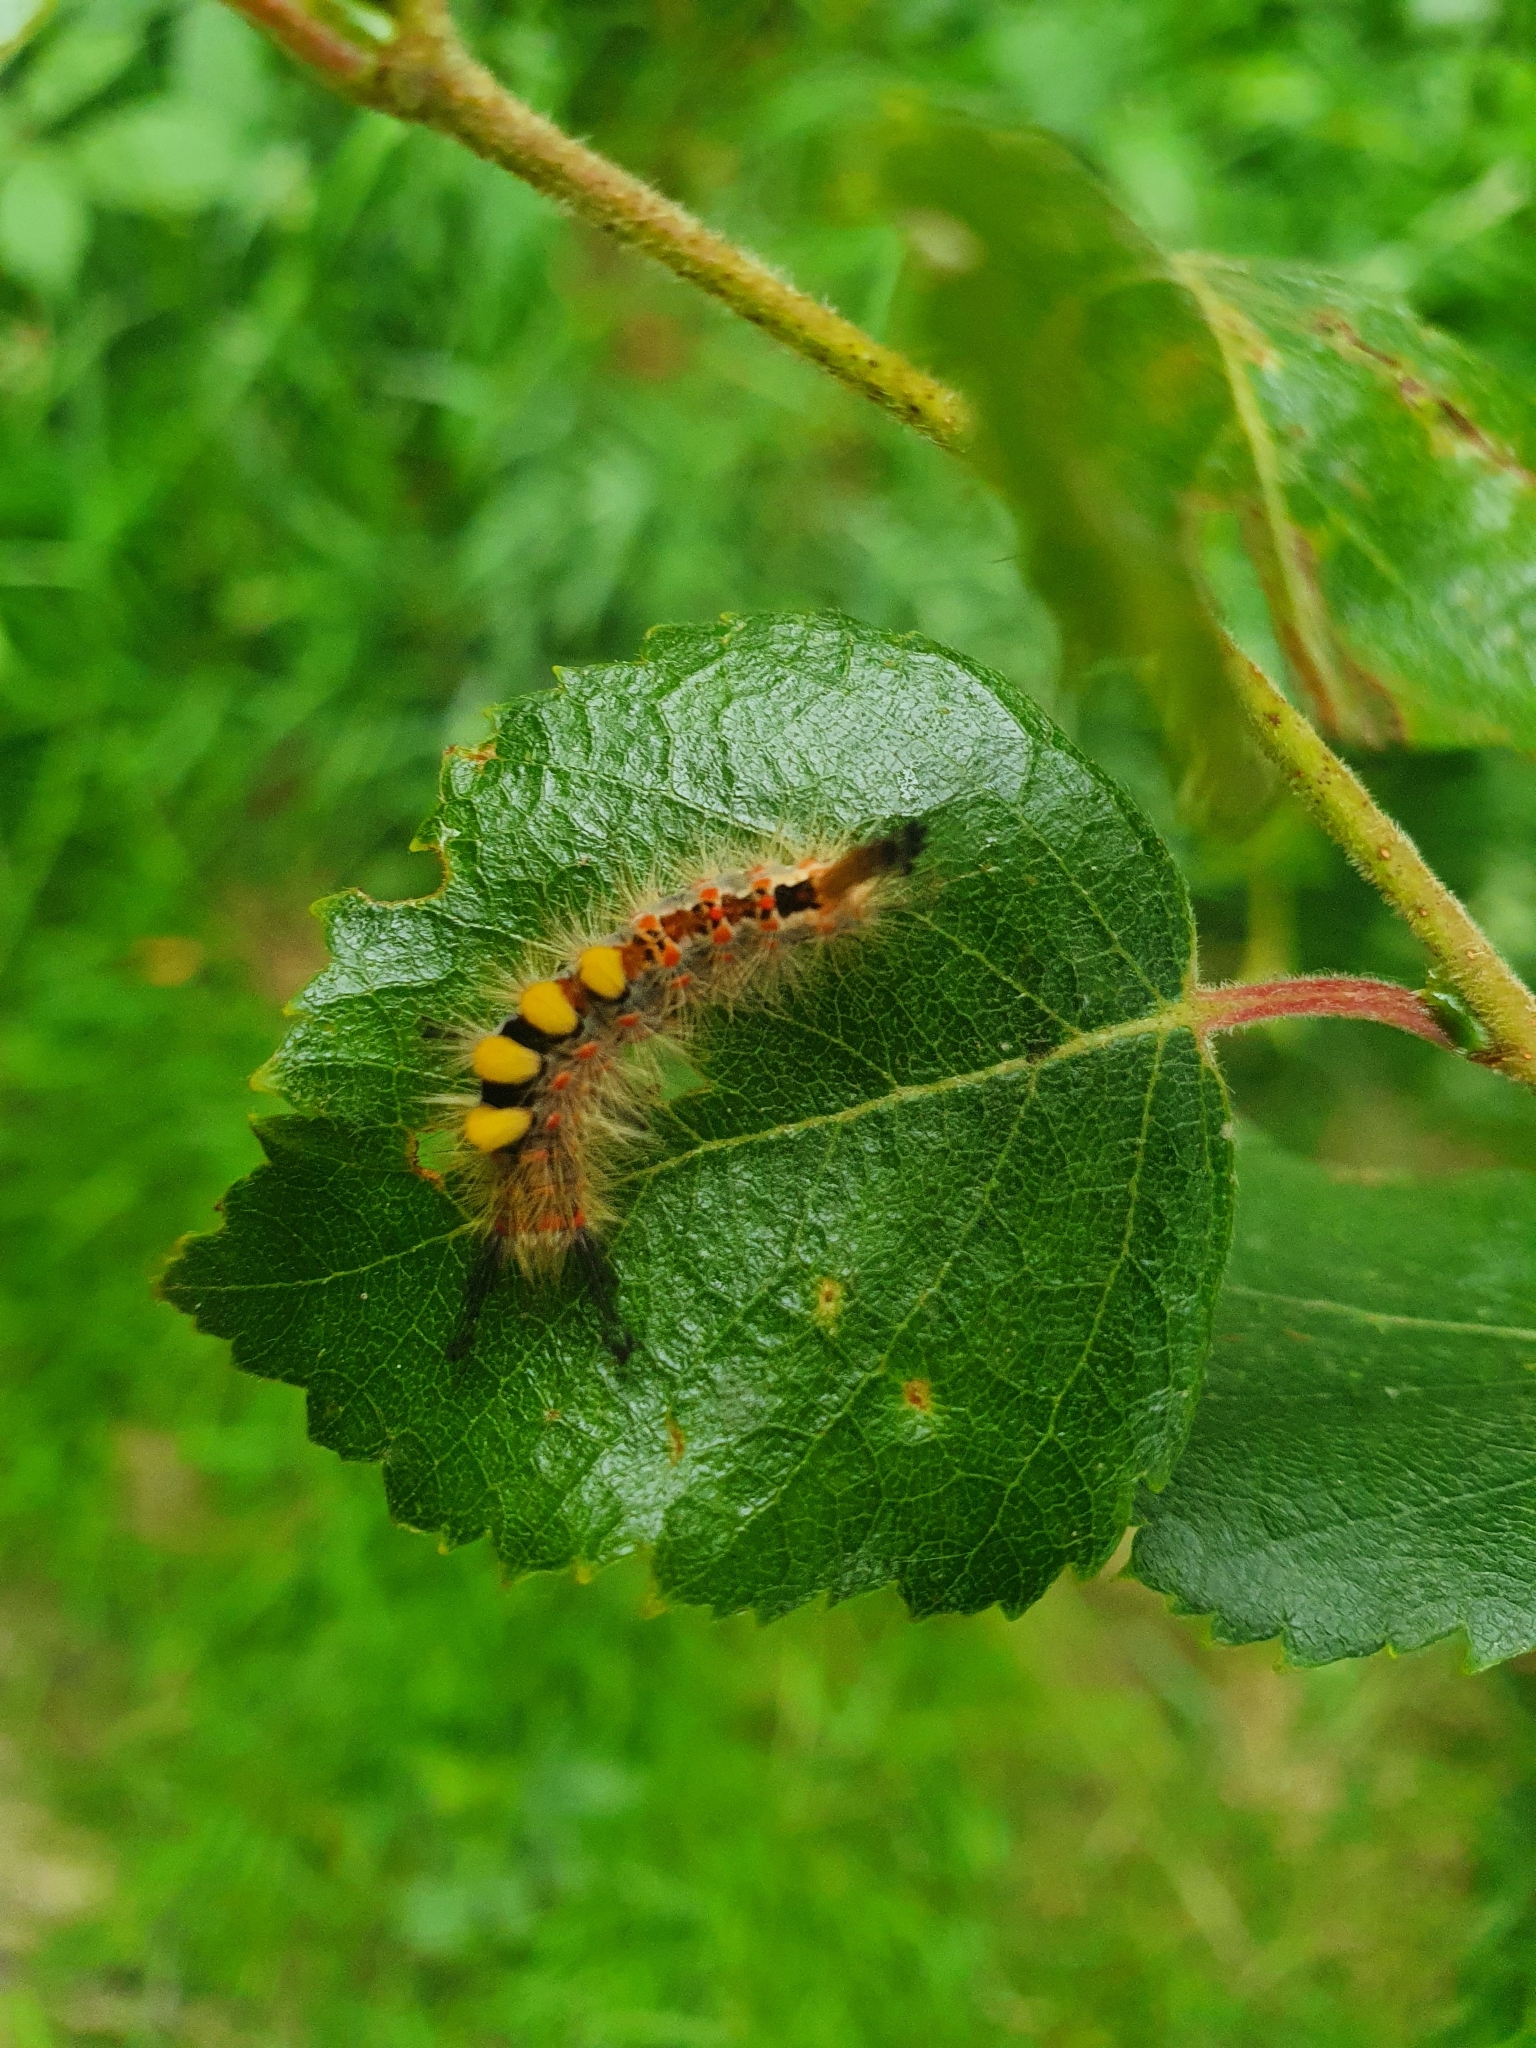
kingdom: Animalia
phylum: Arthropoda
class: Insecta
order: Lepidoptera
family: Erebidae
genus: Orgyia
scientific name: Orgyia antiqua
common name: Vapourer
